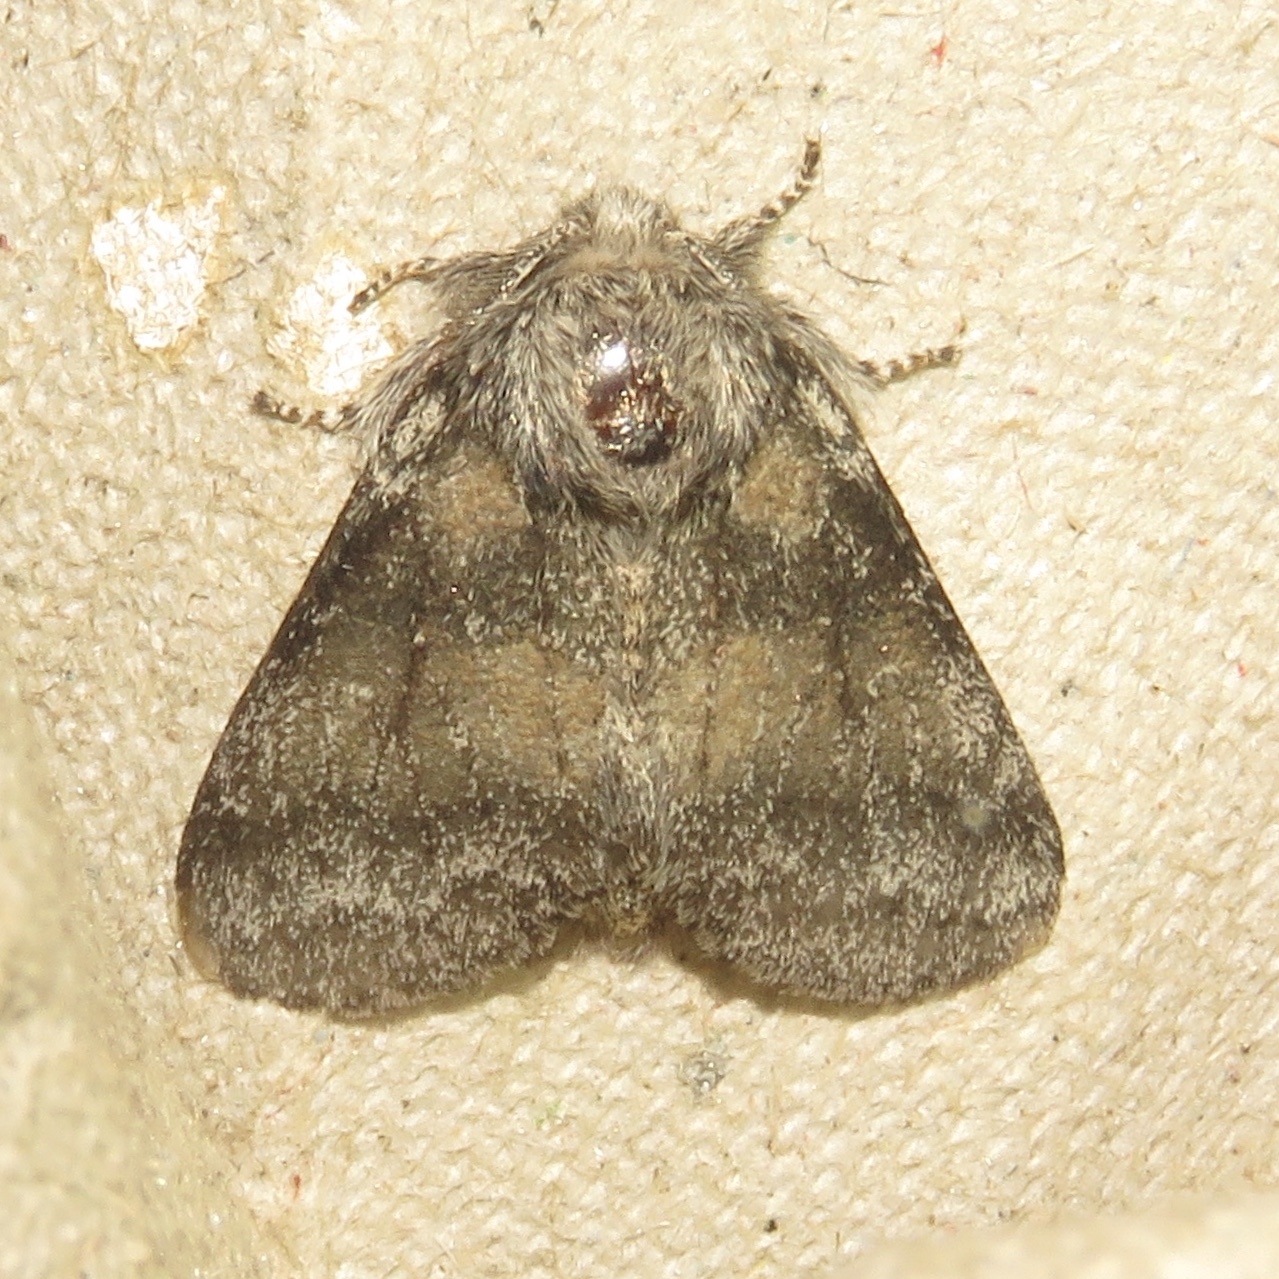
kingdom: Animalia
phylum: Arthropoda
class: Insecta
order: Lepidoptera
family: Notodontidae
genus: Gluphisia
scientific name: Gluphisia septentrionis
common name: Common gluphisia
